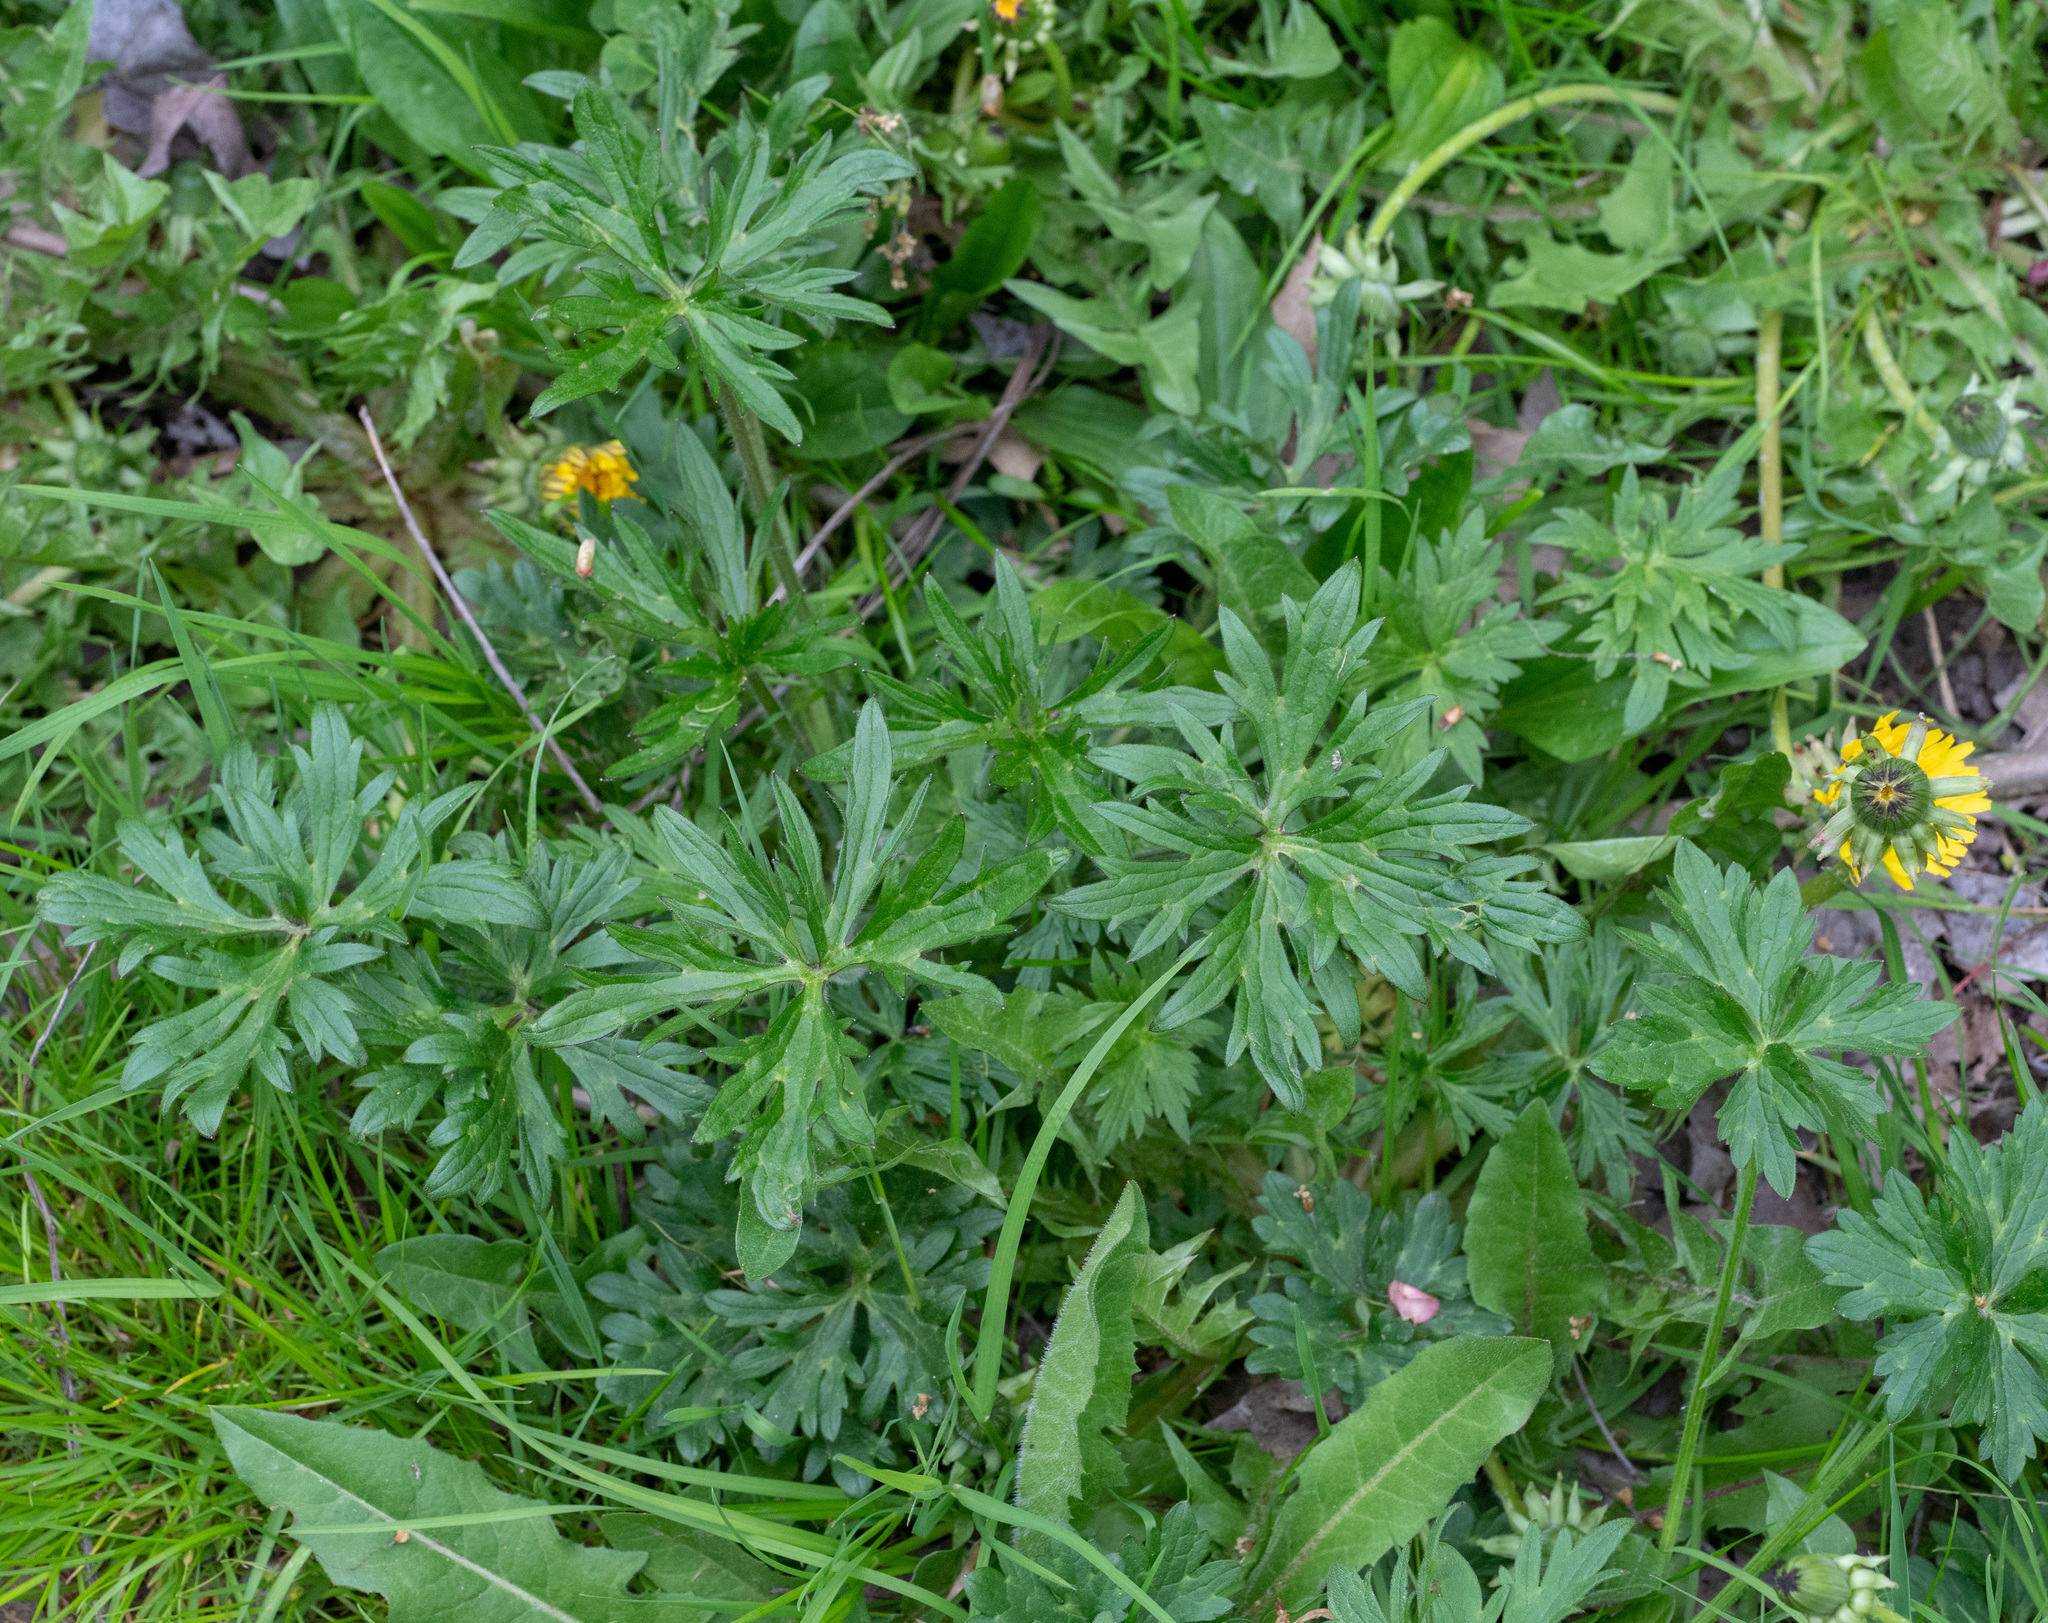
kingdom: Plantae
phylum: Tracheophyta
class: Magnoliopsida
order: Ranunculales
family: Ranunculaceae
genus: Ranunculus
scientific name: Ranunculus acris
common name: Meadow buttercup
